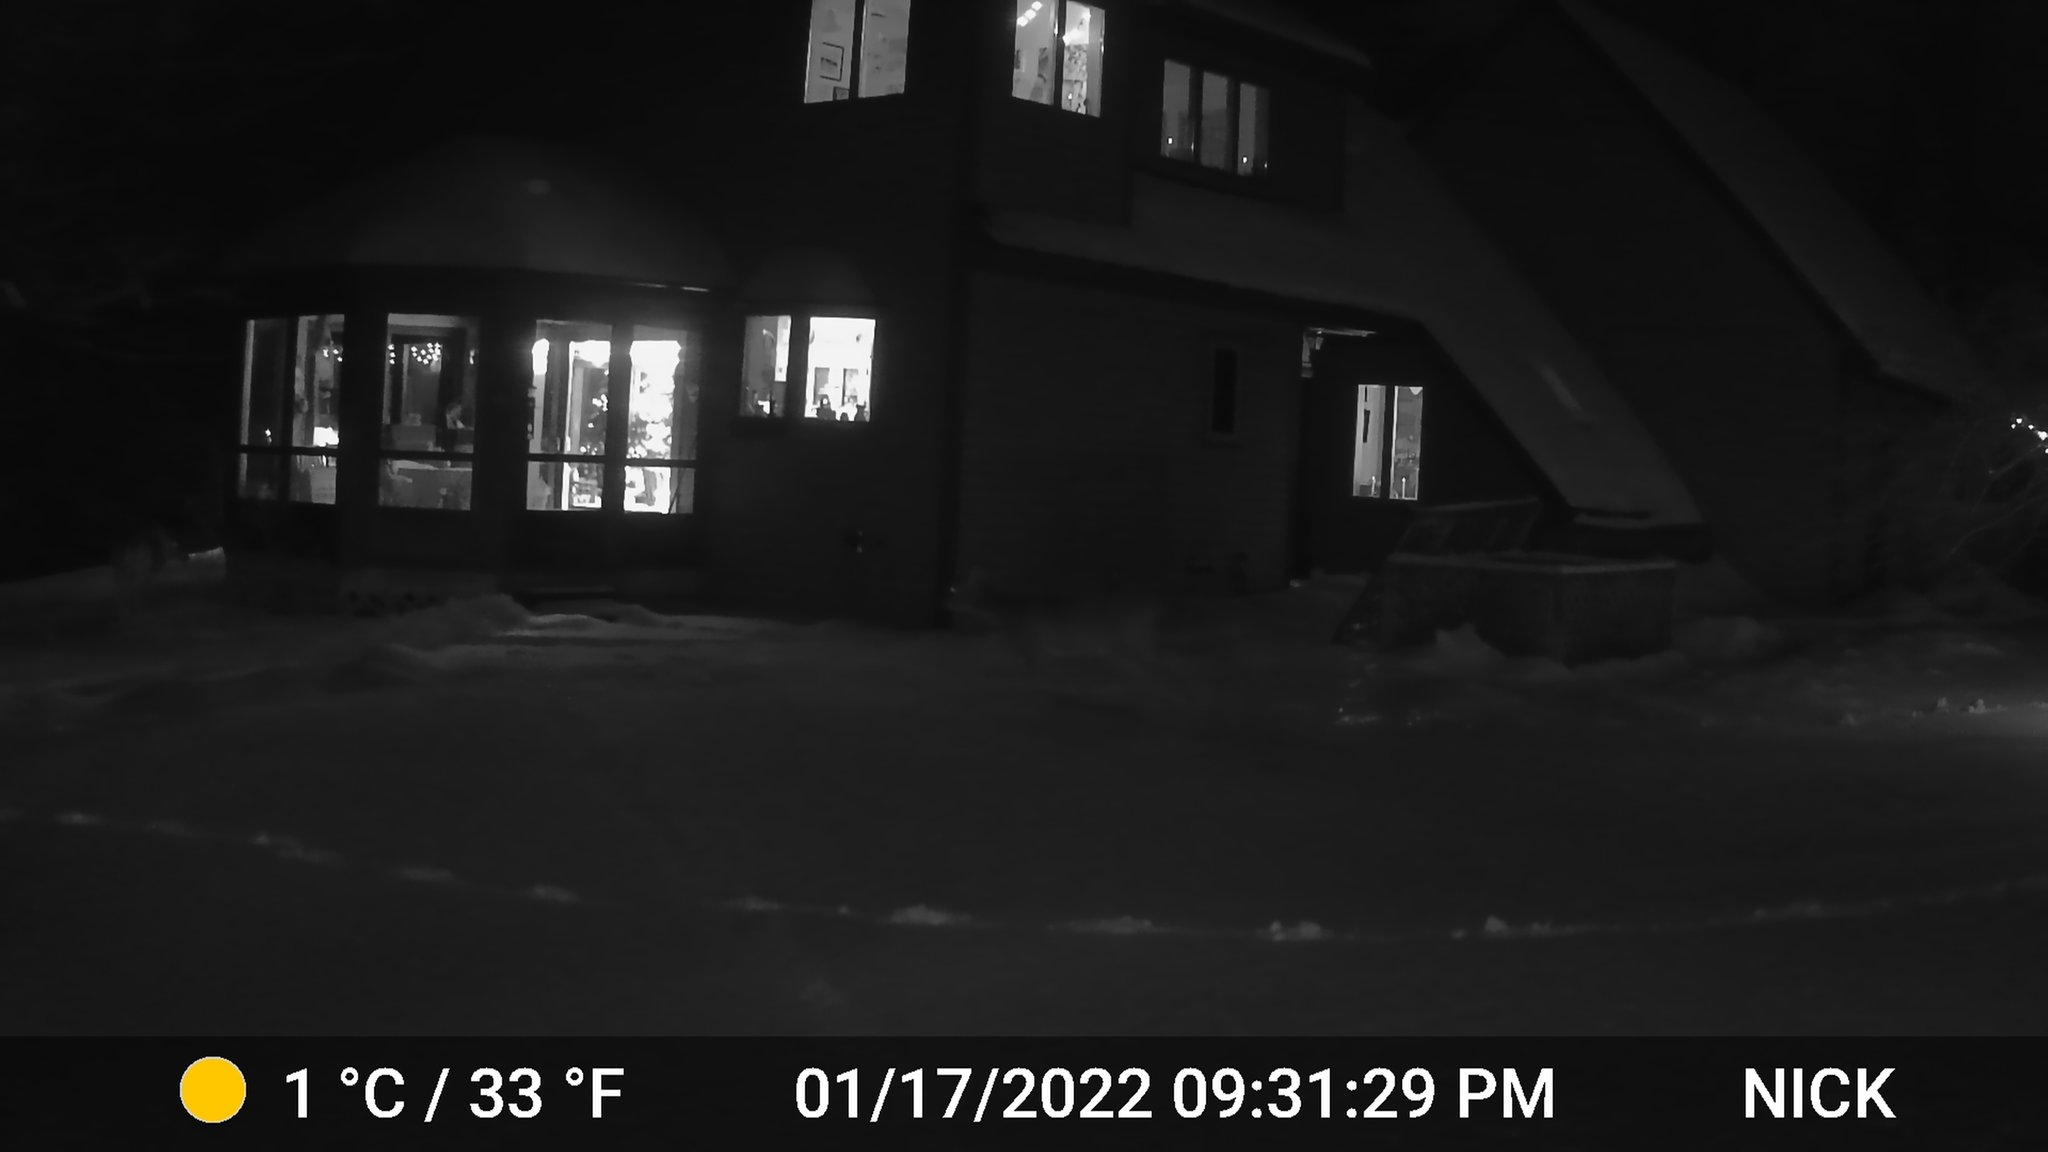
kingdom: Animalia
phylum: Chordata
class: Mammalia
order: Artiodactyla
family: Cervidae
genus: Odocoileus
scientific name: Odocoileus virginianus
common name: White-tailed deer
